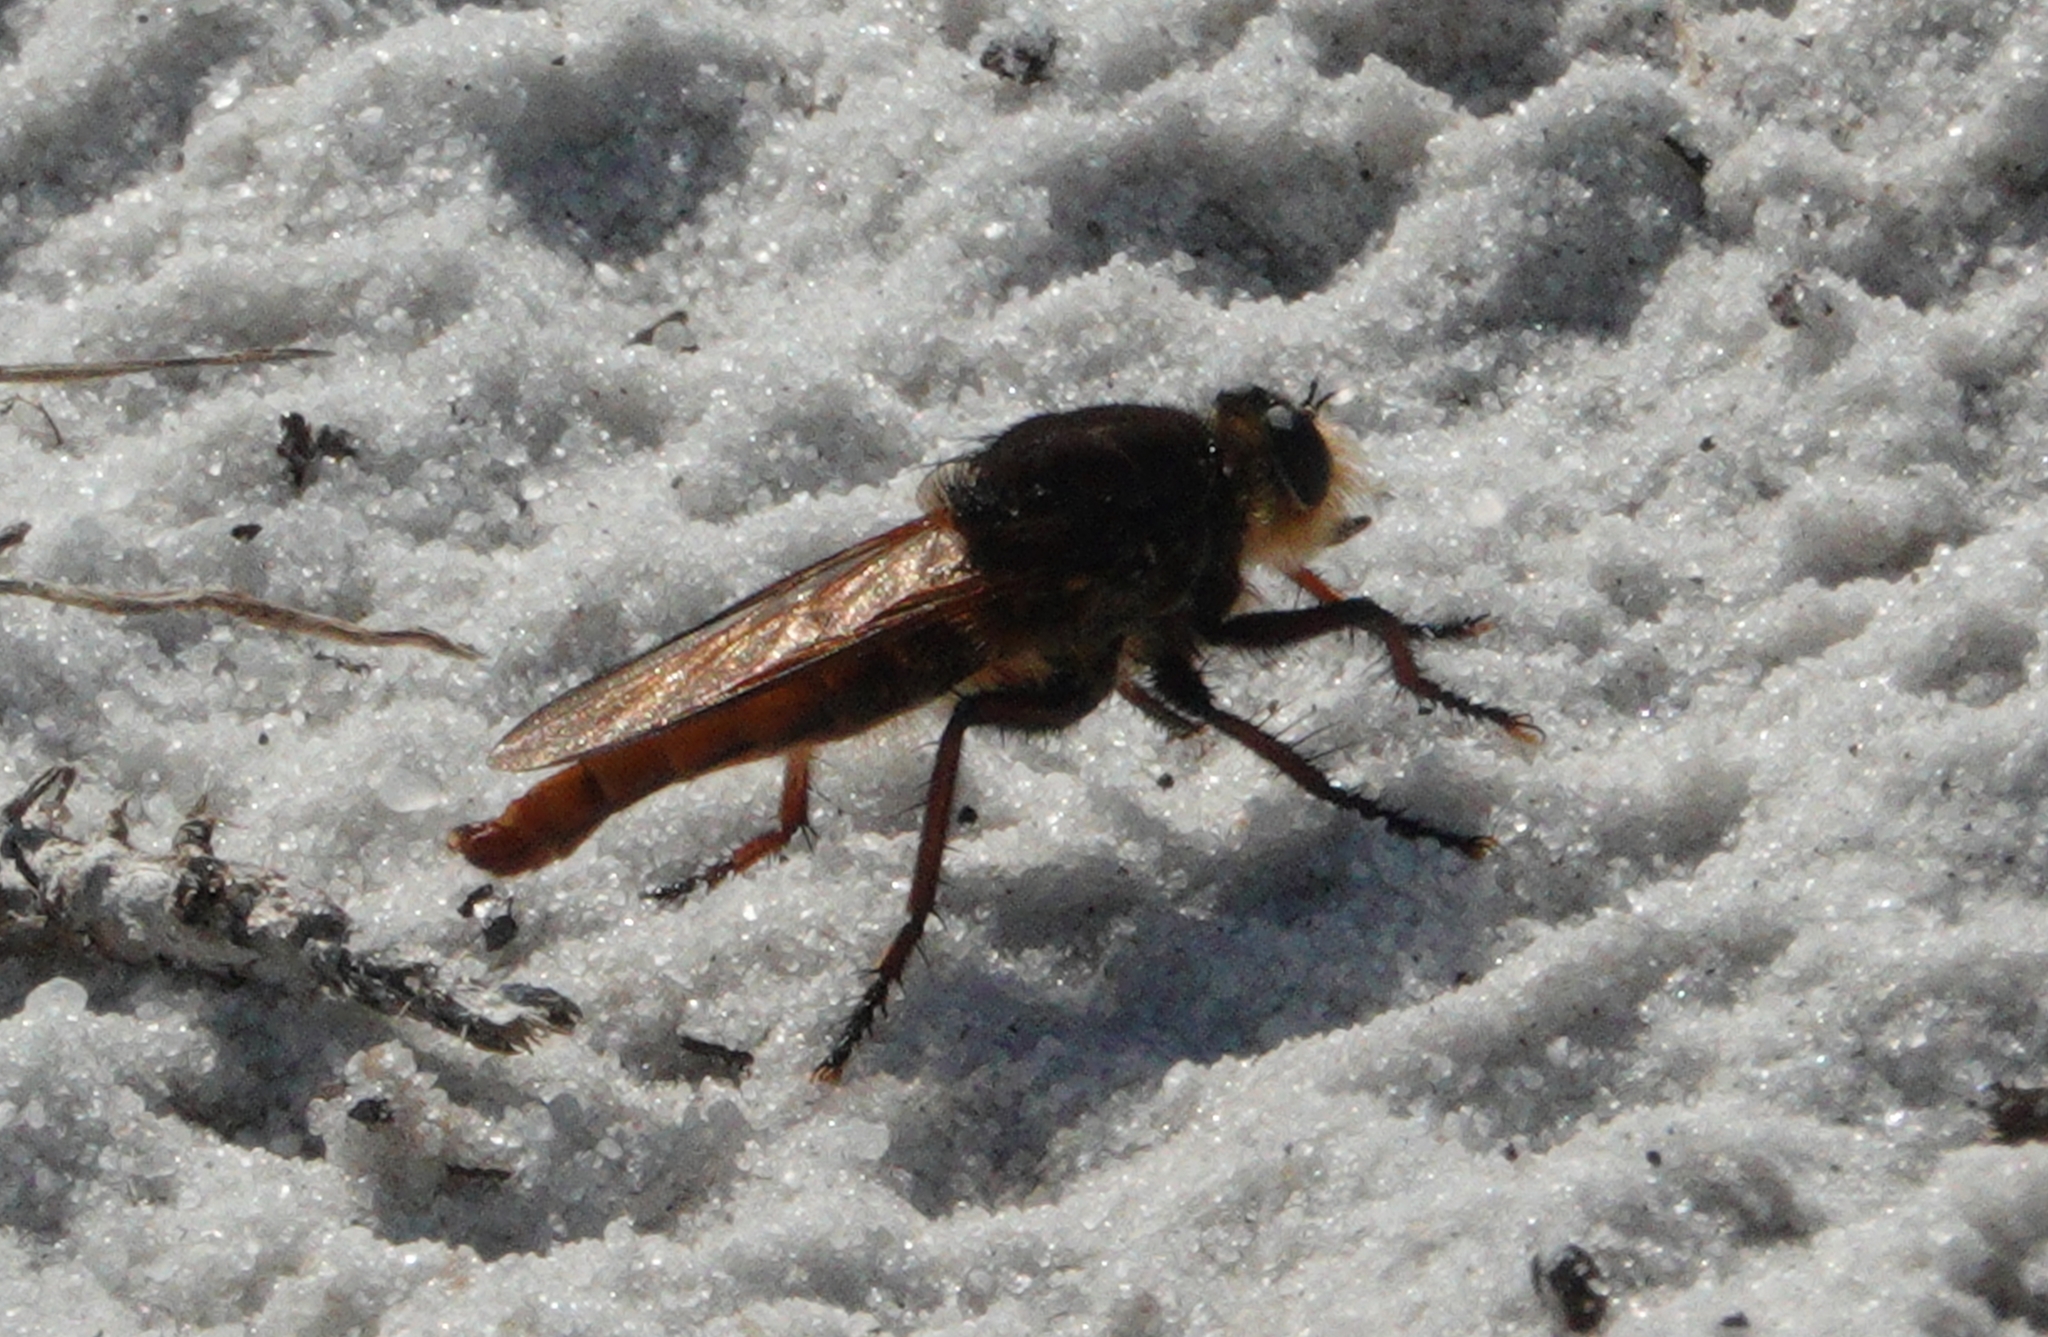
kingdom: Animalia
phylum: Arthropoda
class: Insecta
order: Diptera
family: Asilidae
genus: Proctacanthus
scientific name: Proctacanthus fulviventris
